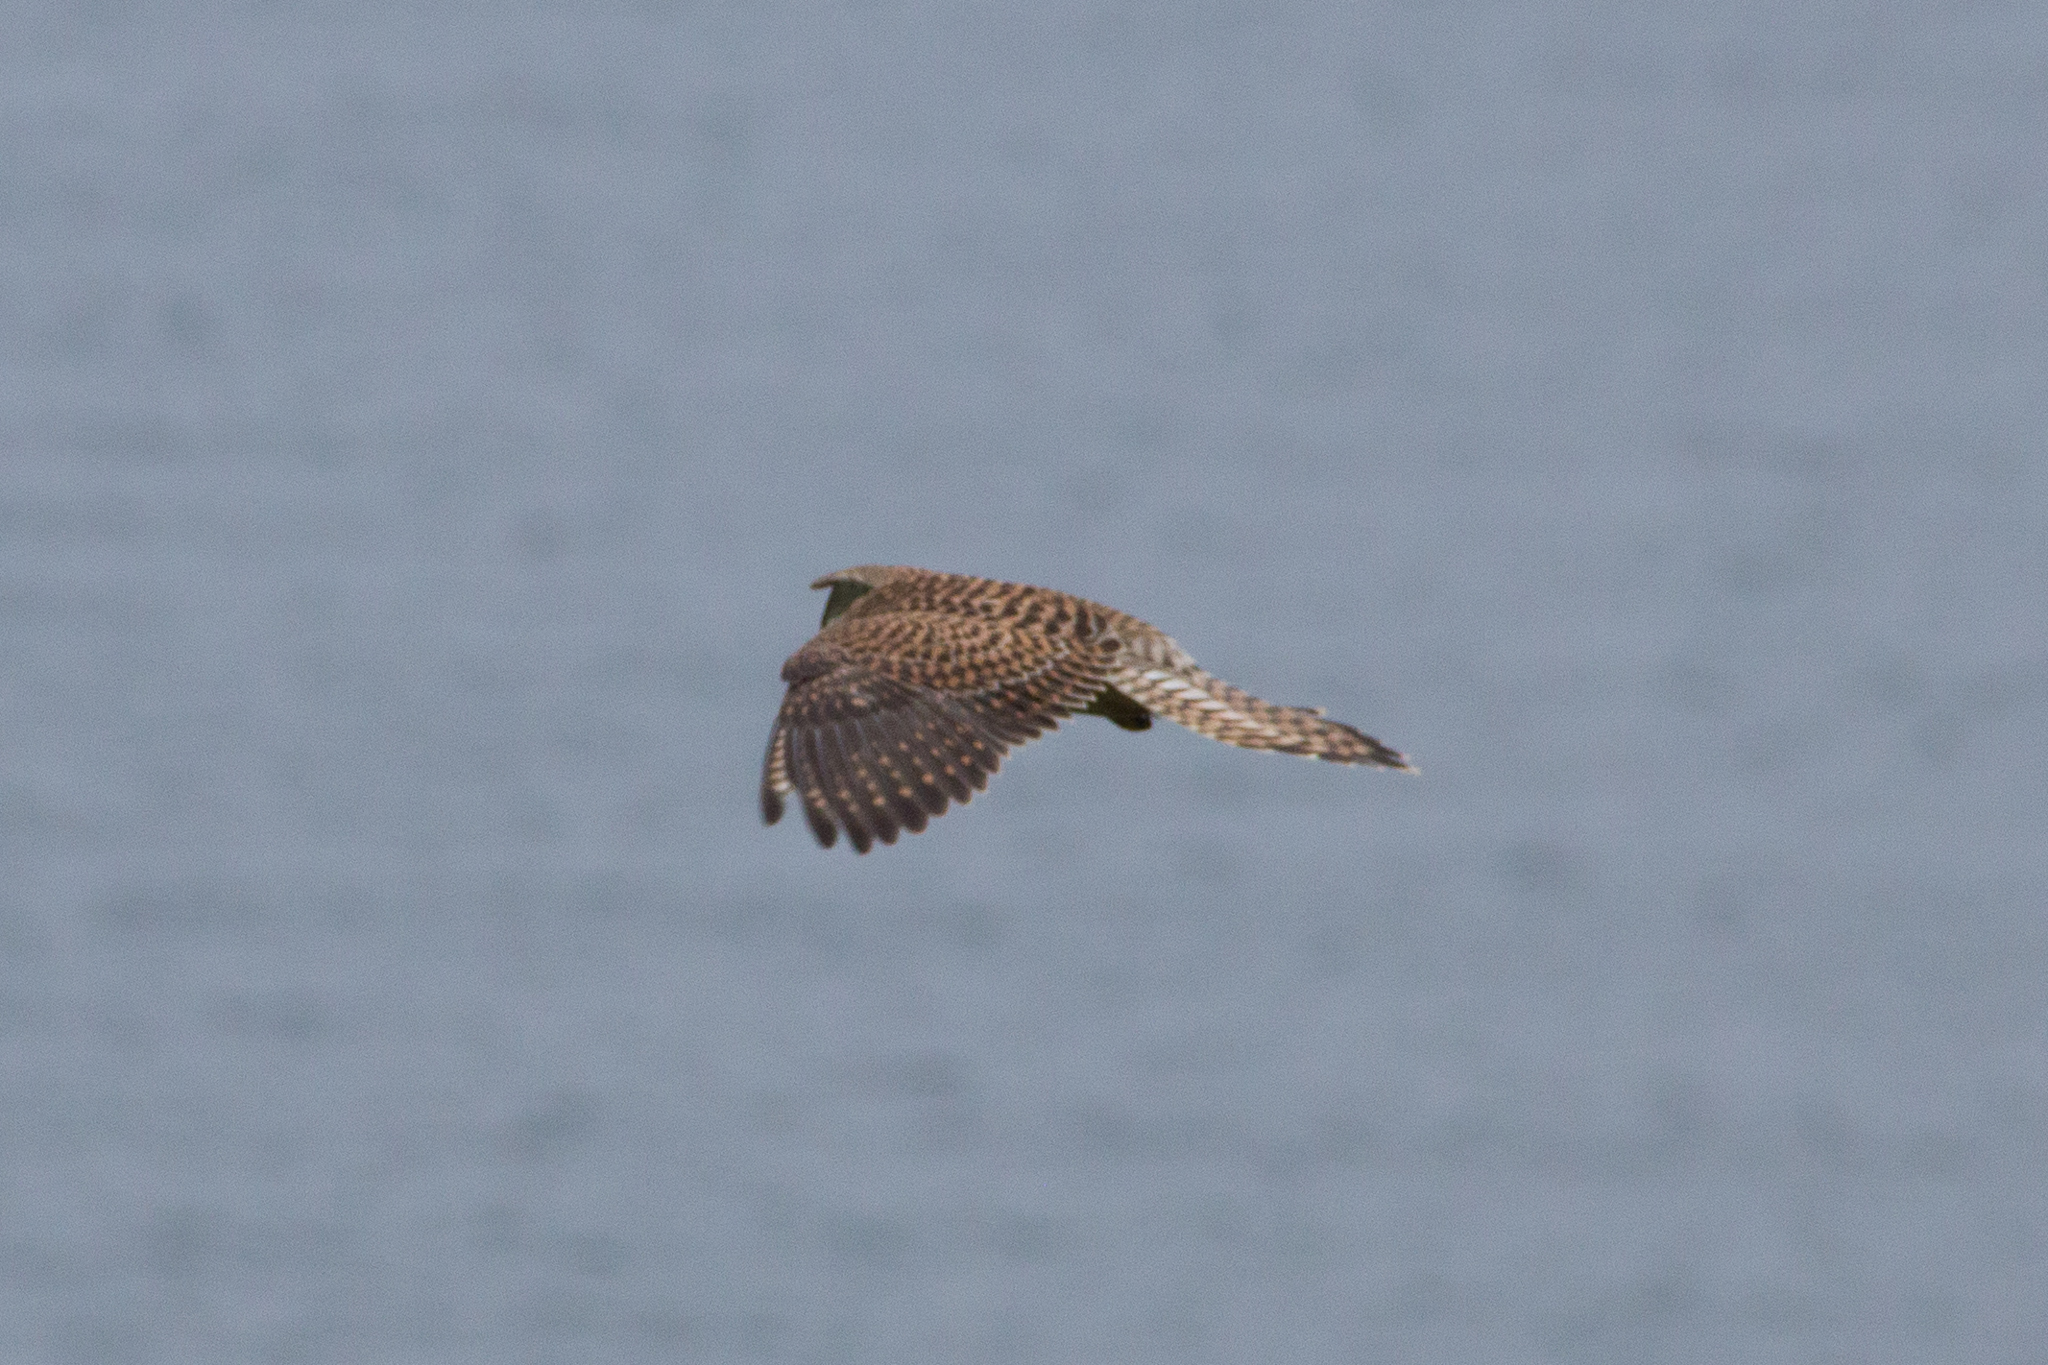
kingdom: Animalia
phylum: Chordata
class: Aves
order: Falconiformes
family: Falconidae
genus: Falco
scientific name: Falco tinnunculus
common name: Common kestrel
